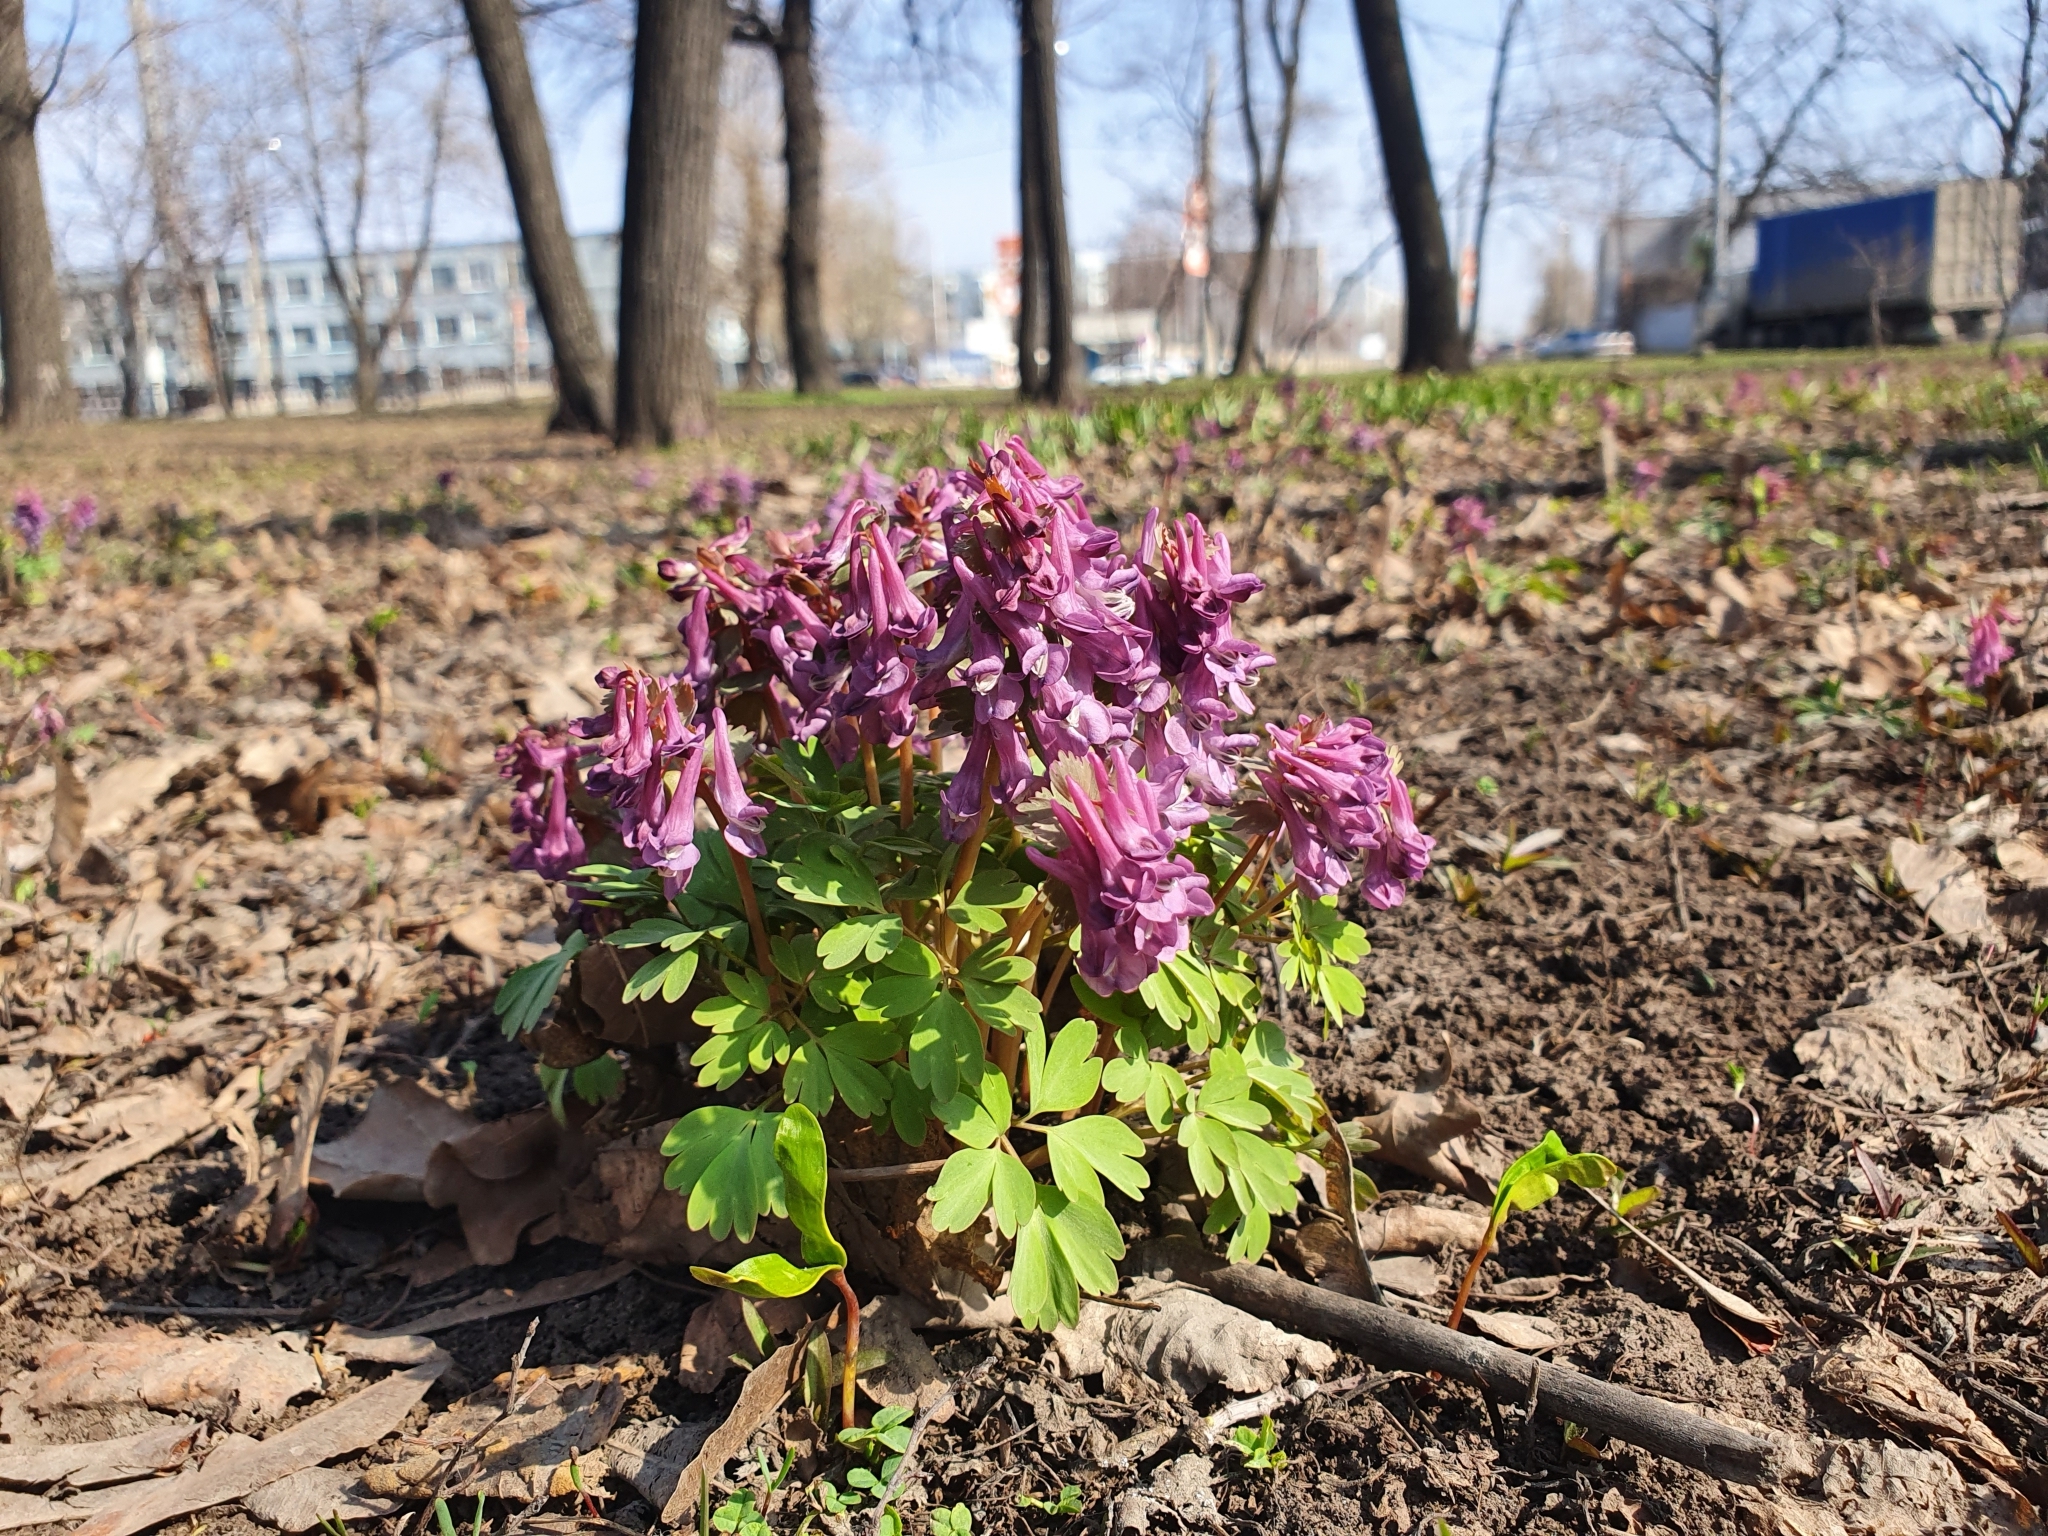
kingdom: Plantae
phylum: Tracheophyta
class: Magnoliopsida
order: Ranunculales
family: Papaveraceae
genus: Corydalis
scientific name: Corydalis solida
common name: Bird-in-a-bush
